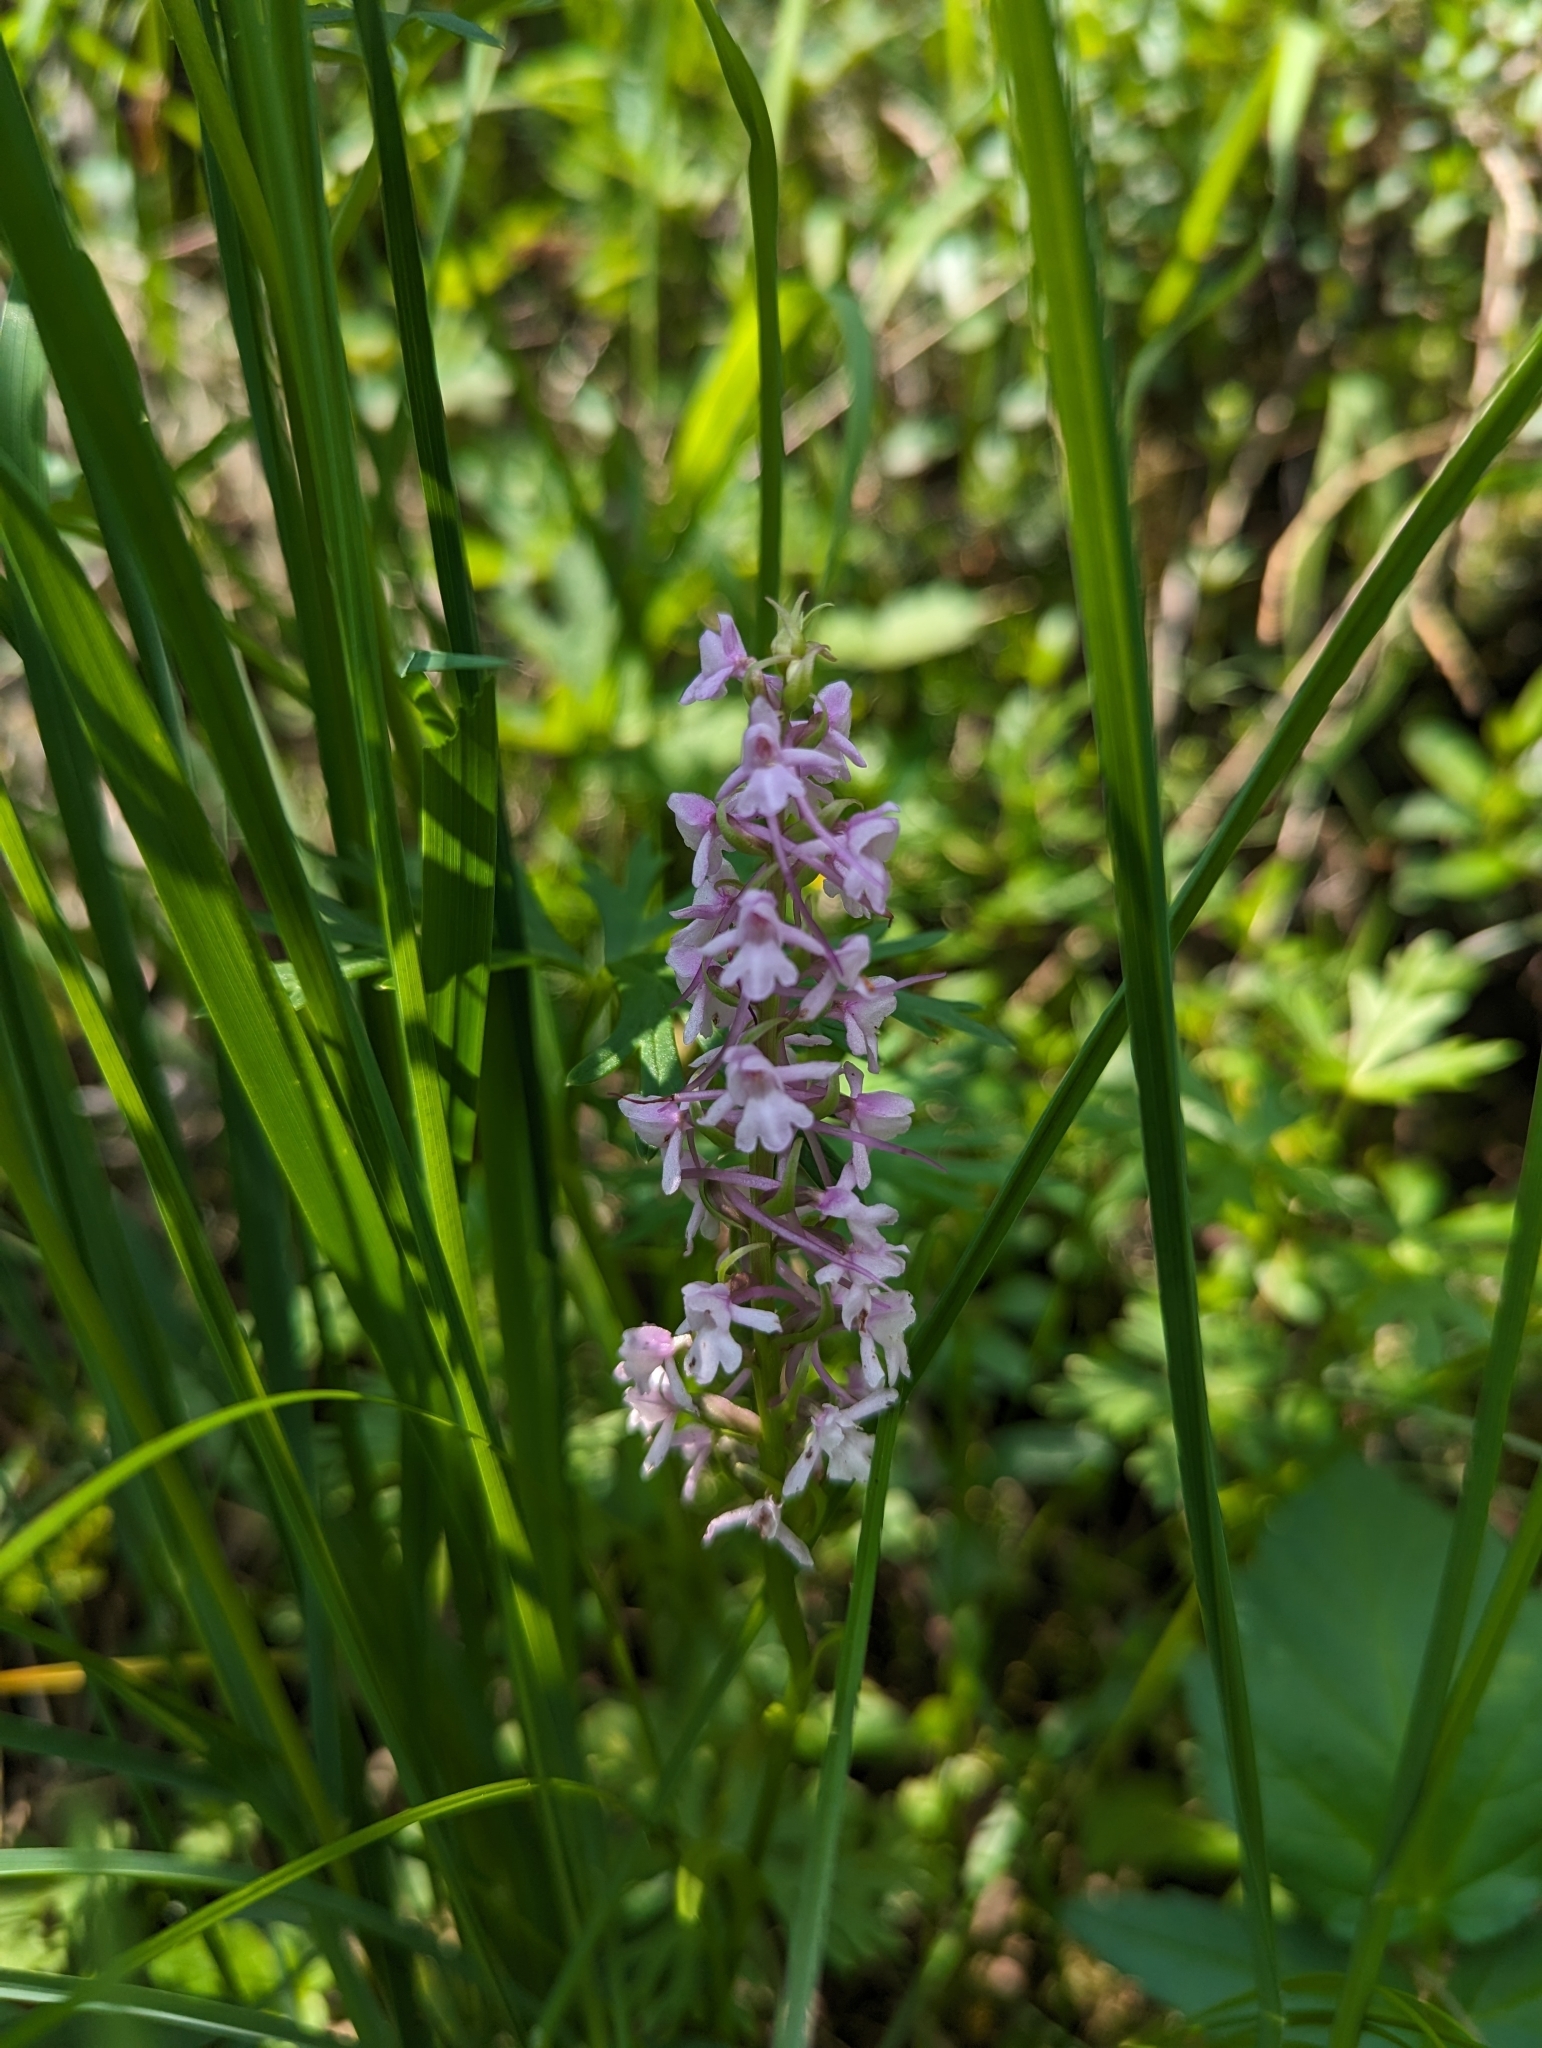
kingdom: Plantae
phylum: Tracheophyta
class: Liliopsida
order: Asparagales
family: Orchidaceae
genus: Gymnadenia
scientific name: Gymnadenia conopsea
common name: Fragrant orchid
